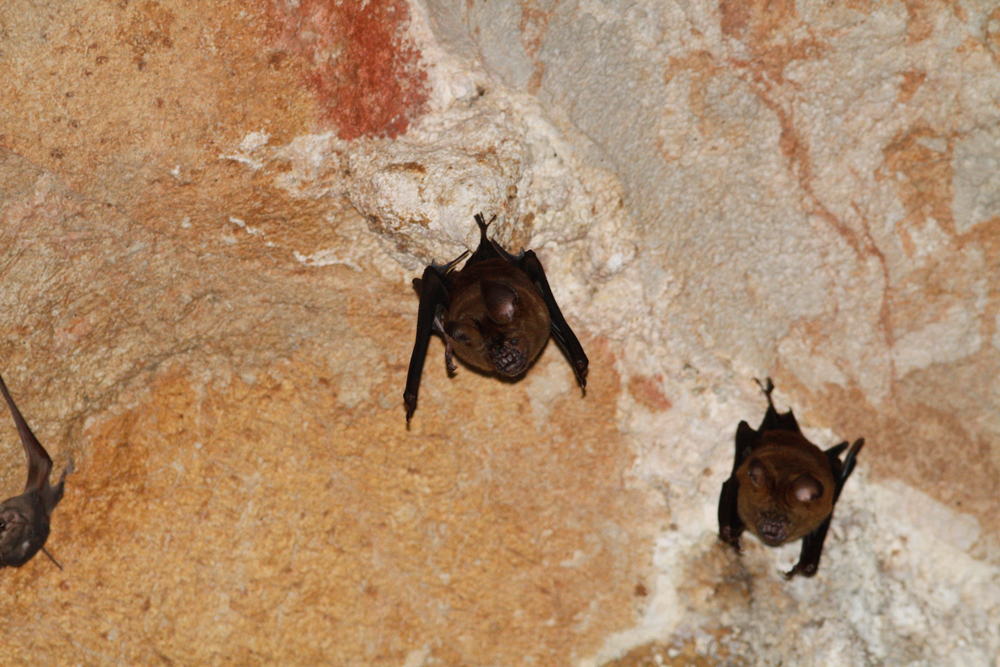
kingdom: Animalia
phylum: Chordata
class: Mammalia
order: Chiroptera
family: Hipposideridae
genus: Hipposideros
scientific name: Hipposideros armiger
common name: Great leaf-nosed bat
